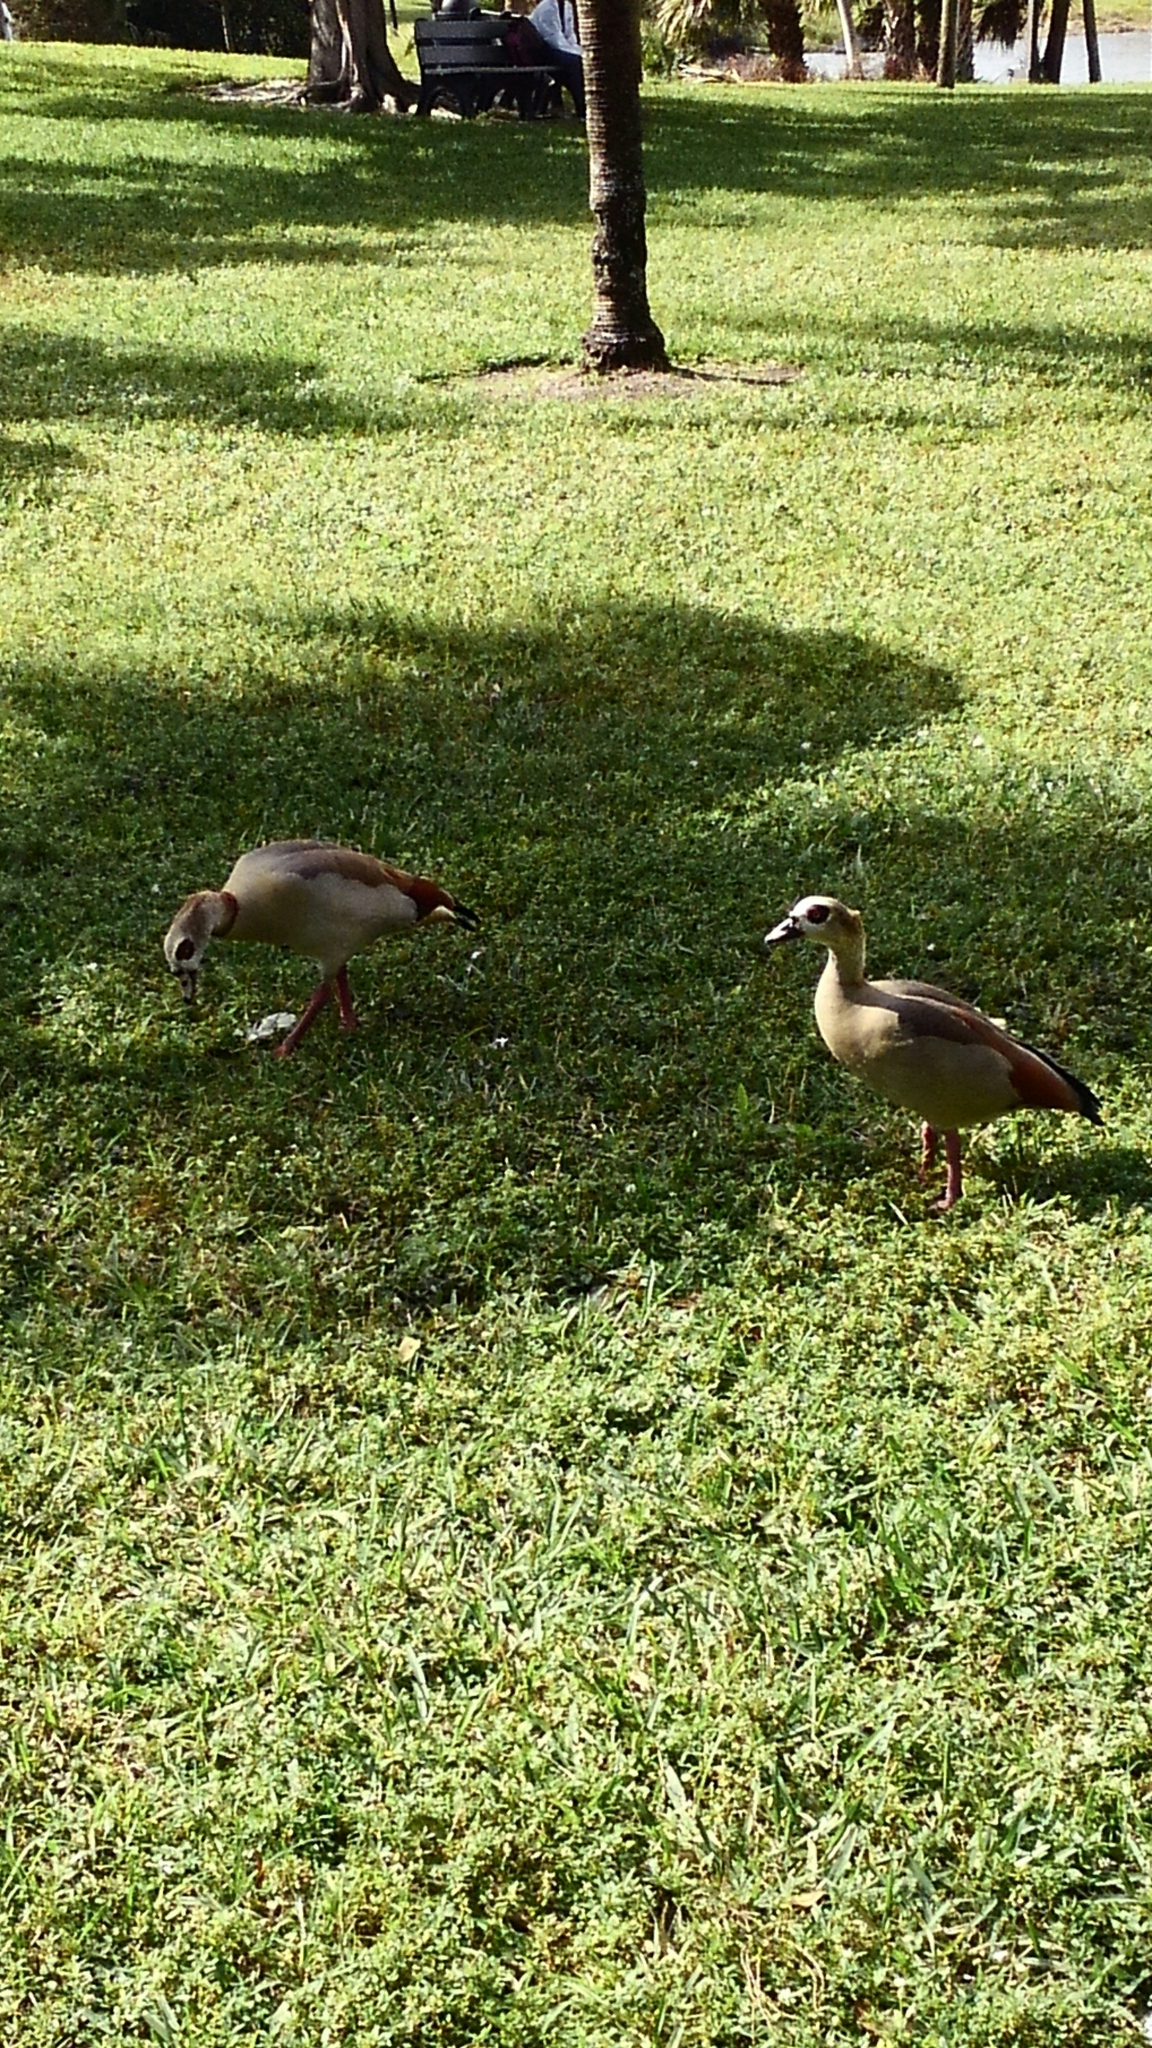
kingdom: Animalia
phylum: Chordata
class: Aves
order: Anseriformes
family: Anatidae
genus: Alopochen
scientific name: Alopochen aegyptiaca
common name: Egyptian goose
